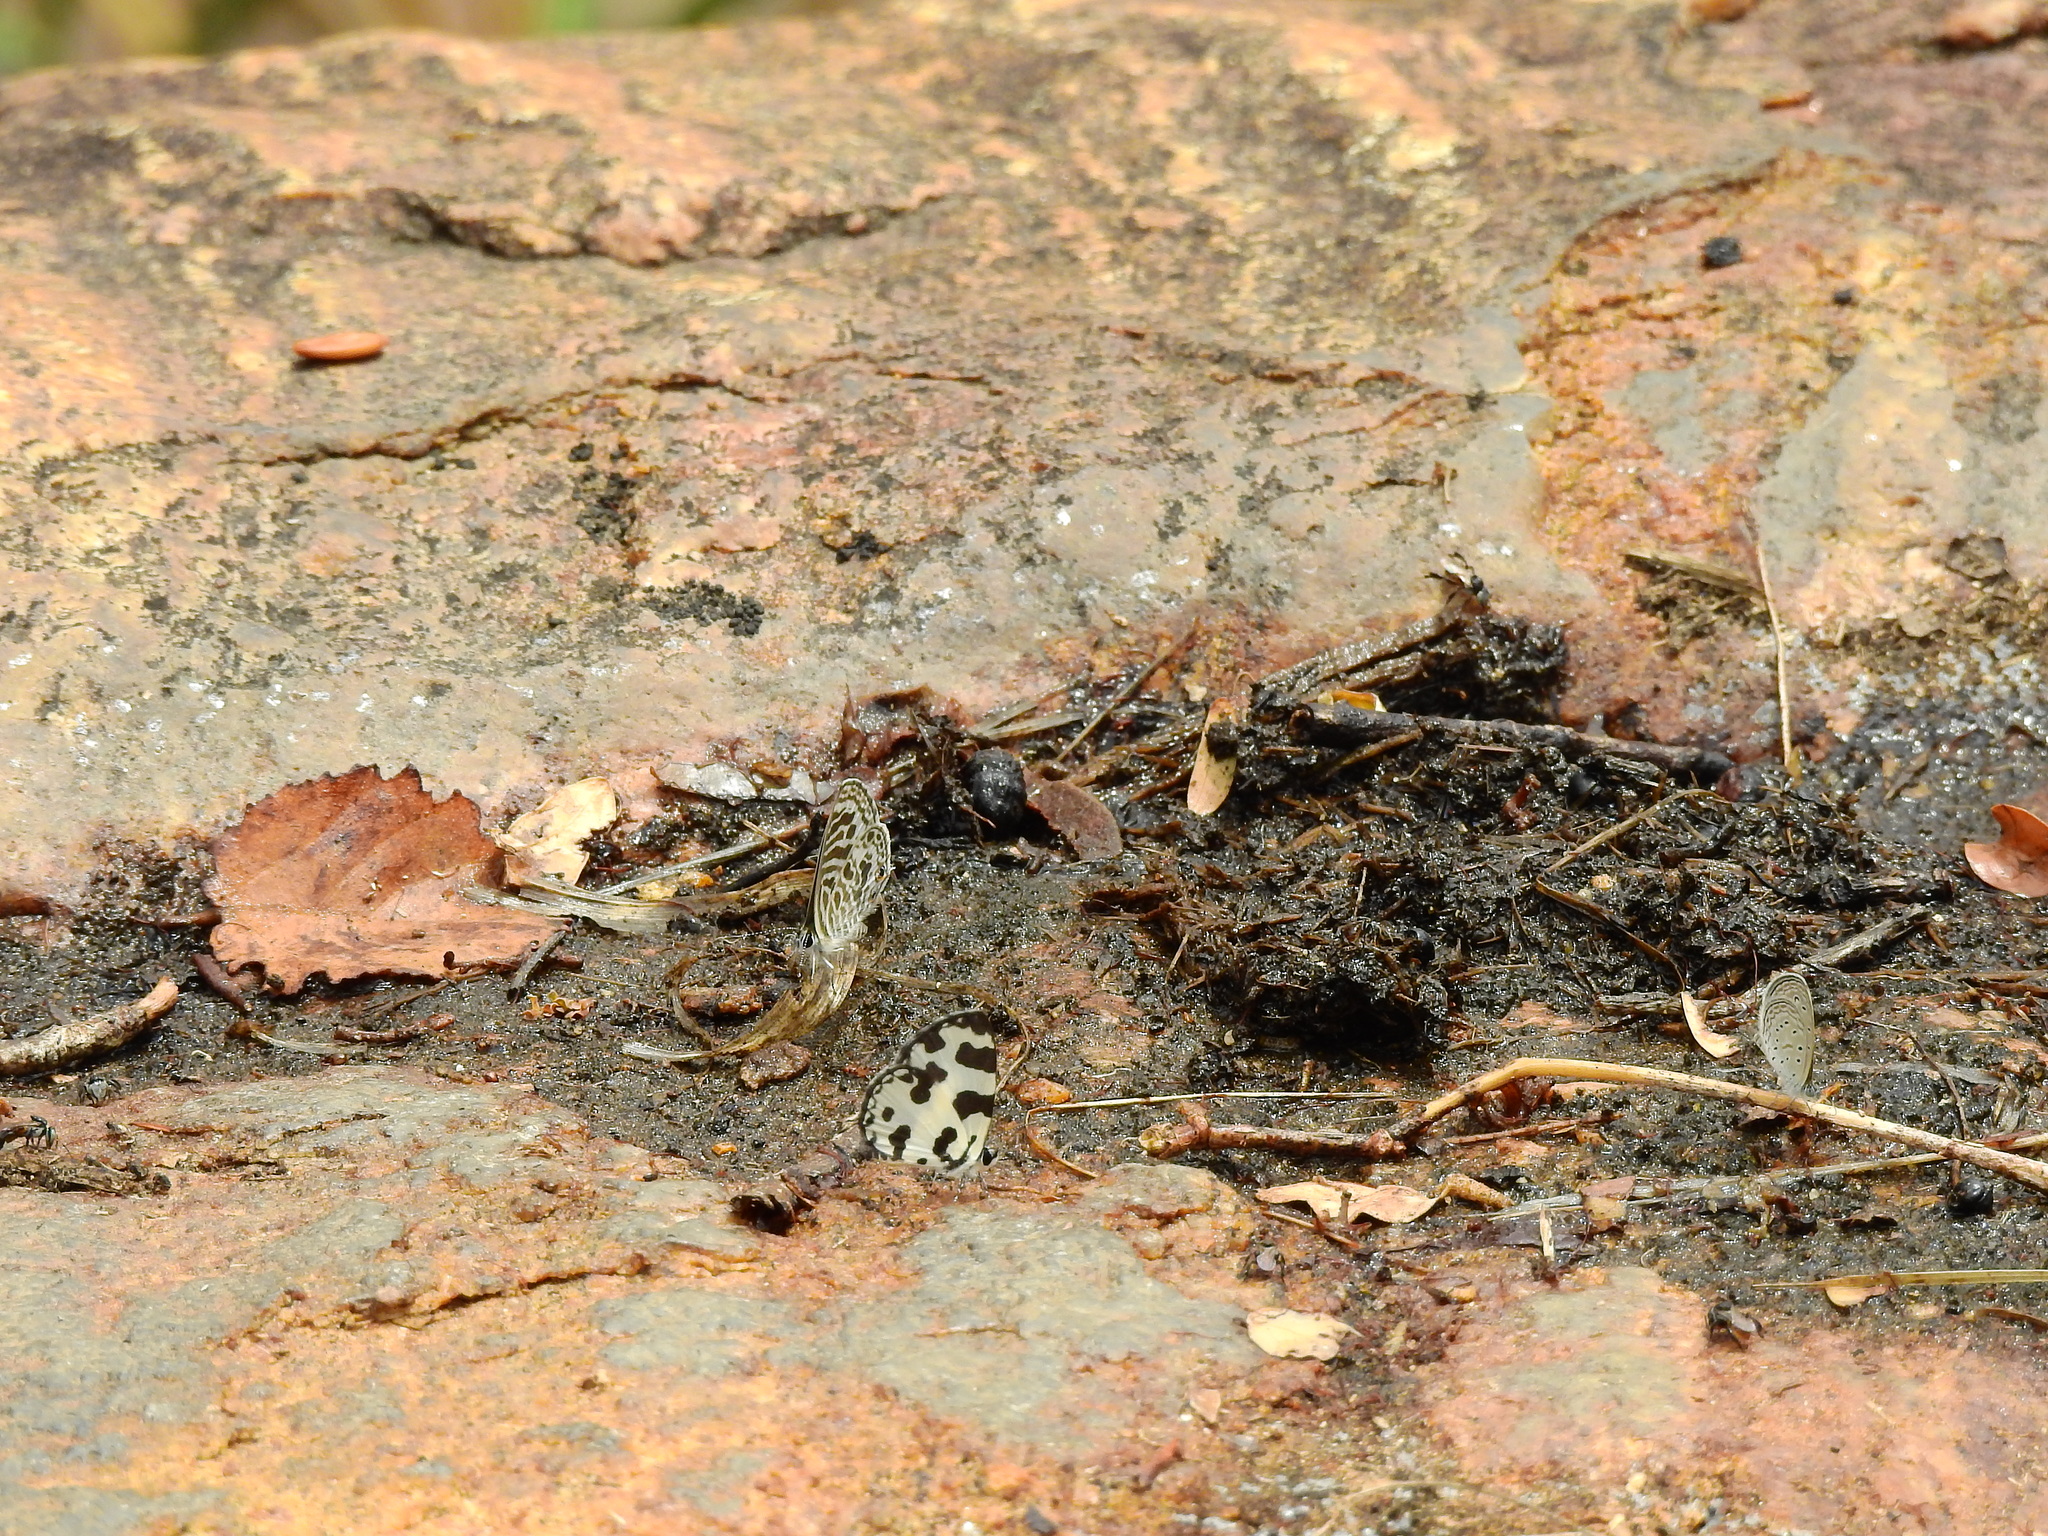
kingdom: Animalia
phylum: Arthropoda
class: Insecta
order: Lepidoptera
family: Lycaenidae
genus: Caleta
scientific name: Caleta decidia
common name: Angled pierrot
